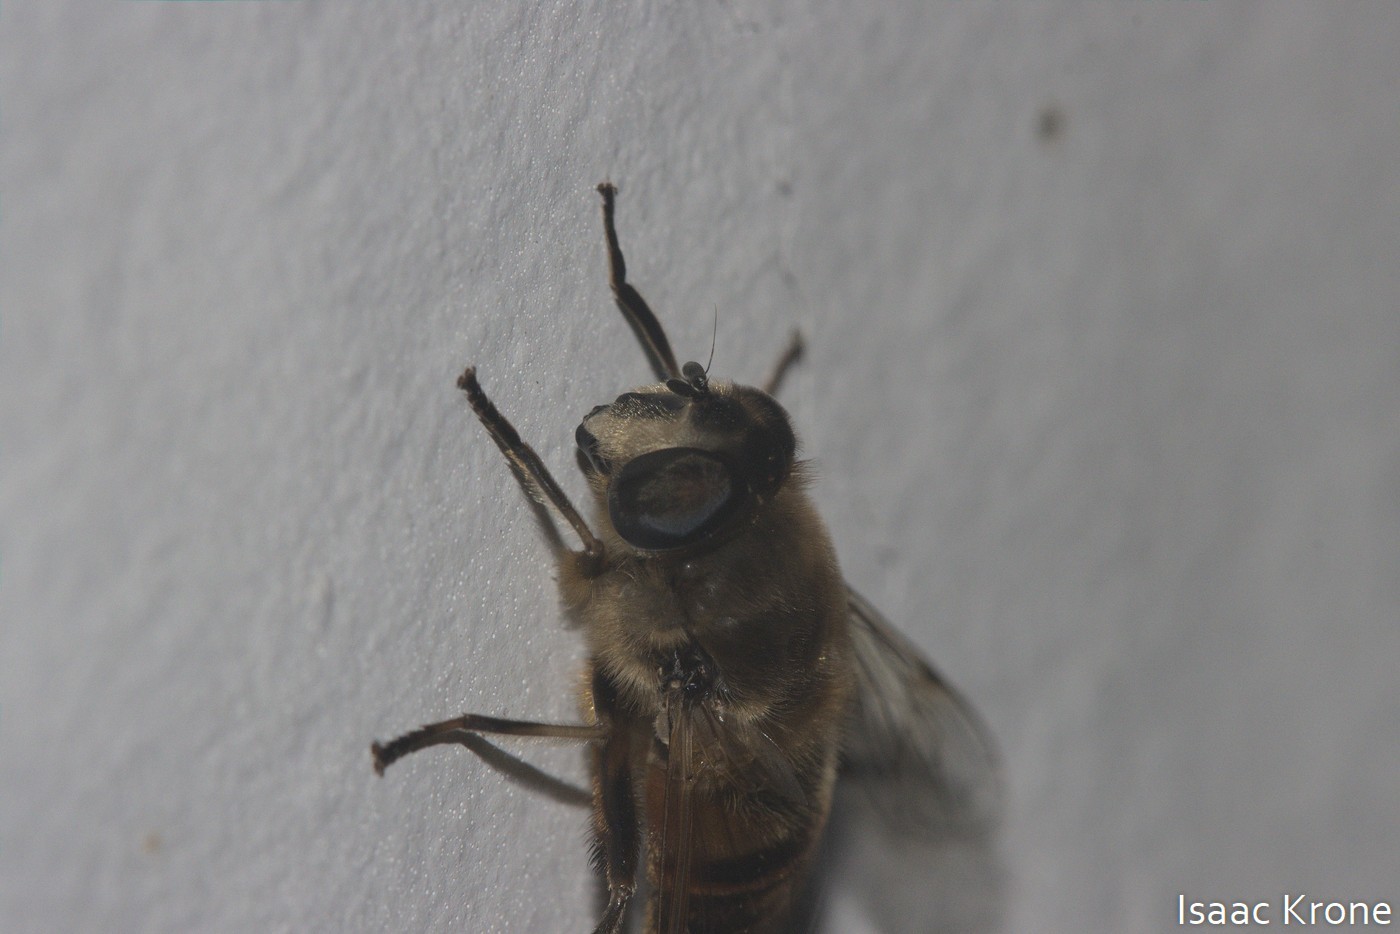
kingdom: Animalia
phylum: Arthropoda
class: Insecta
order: Diptera
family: Syrphidae
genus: Eristalis
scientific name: Eristalis tenax
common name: Drone fly
